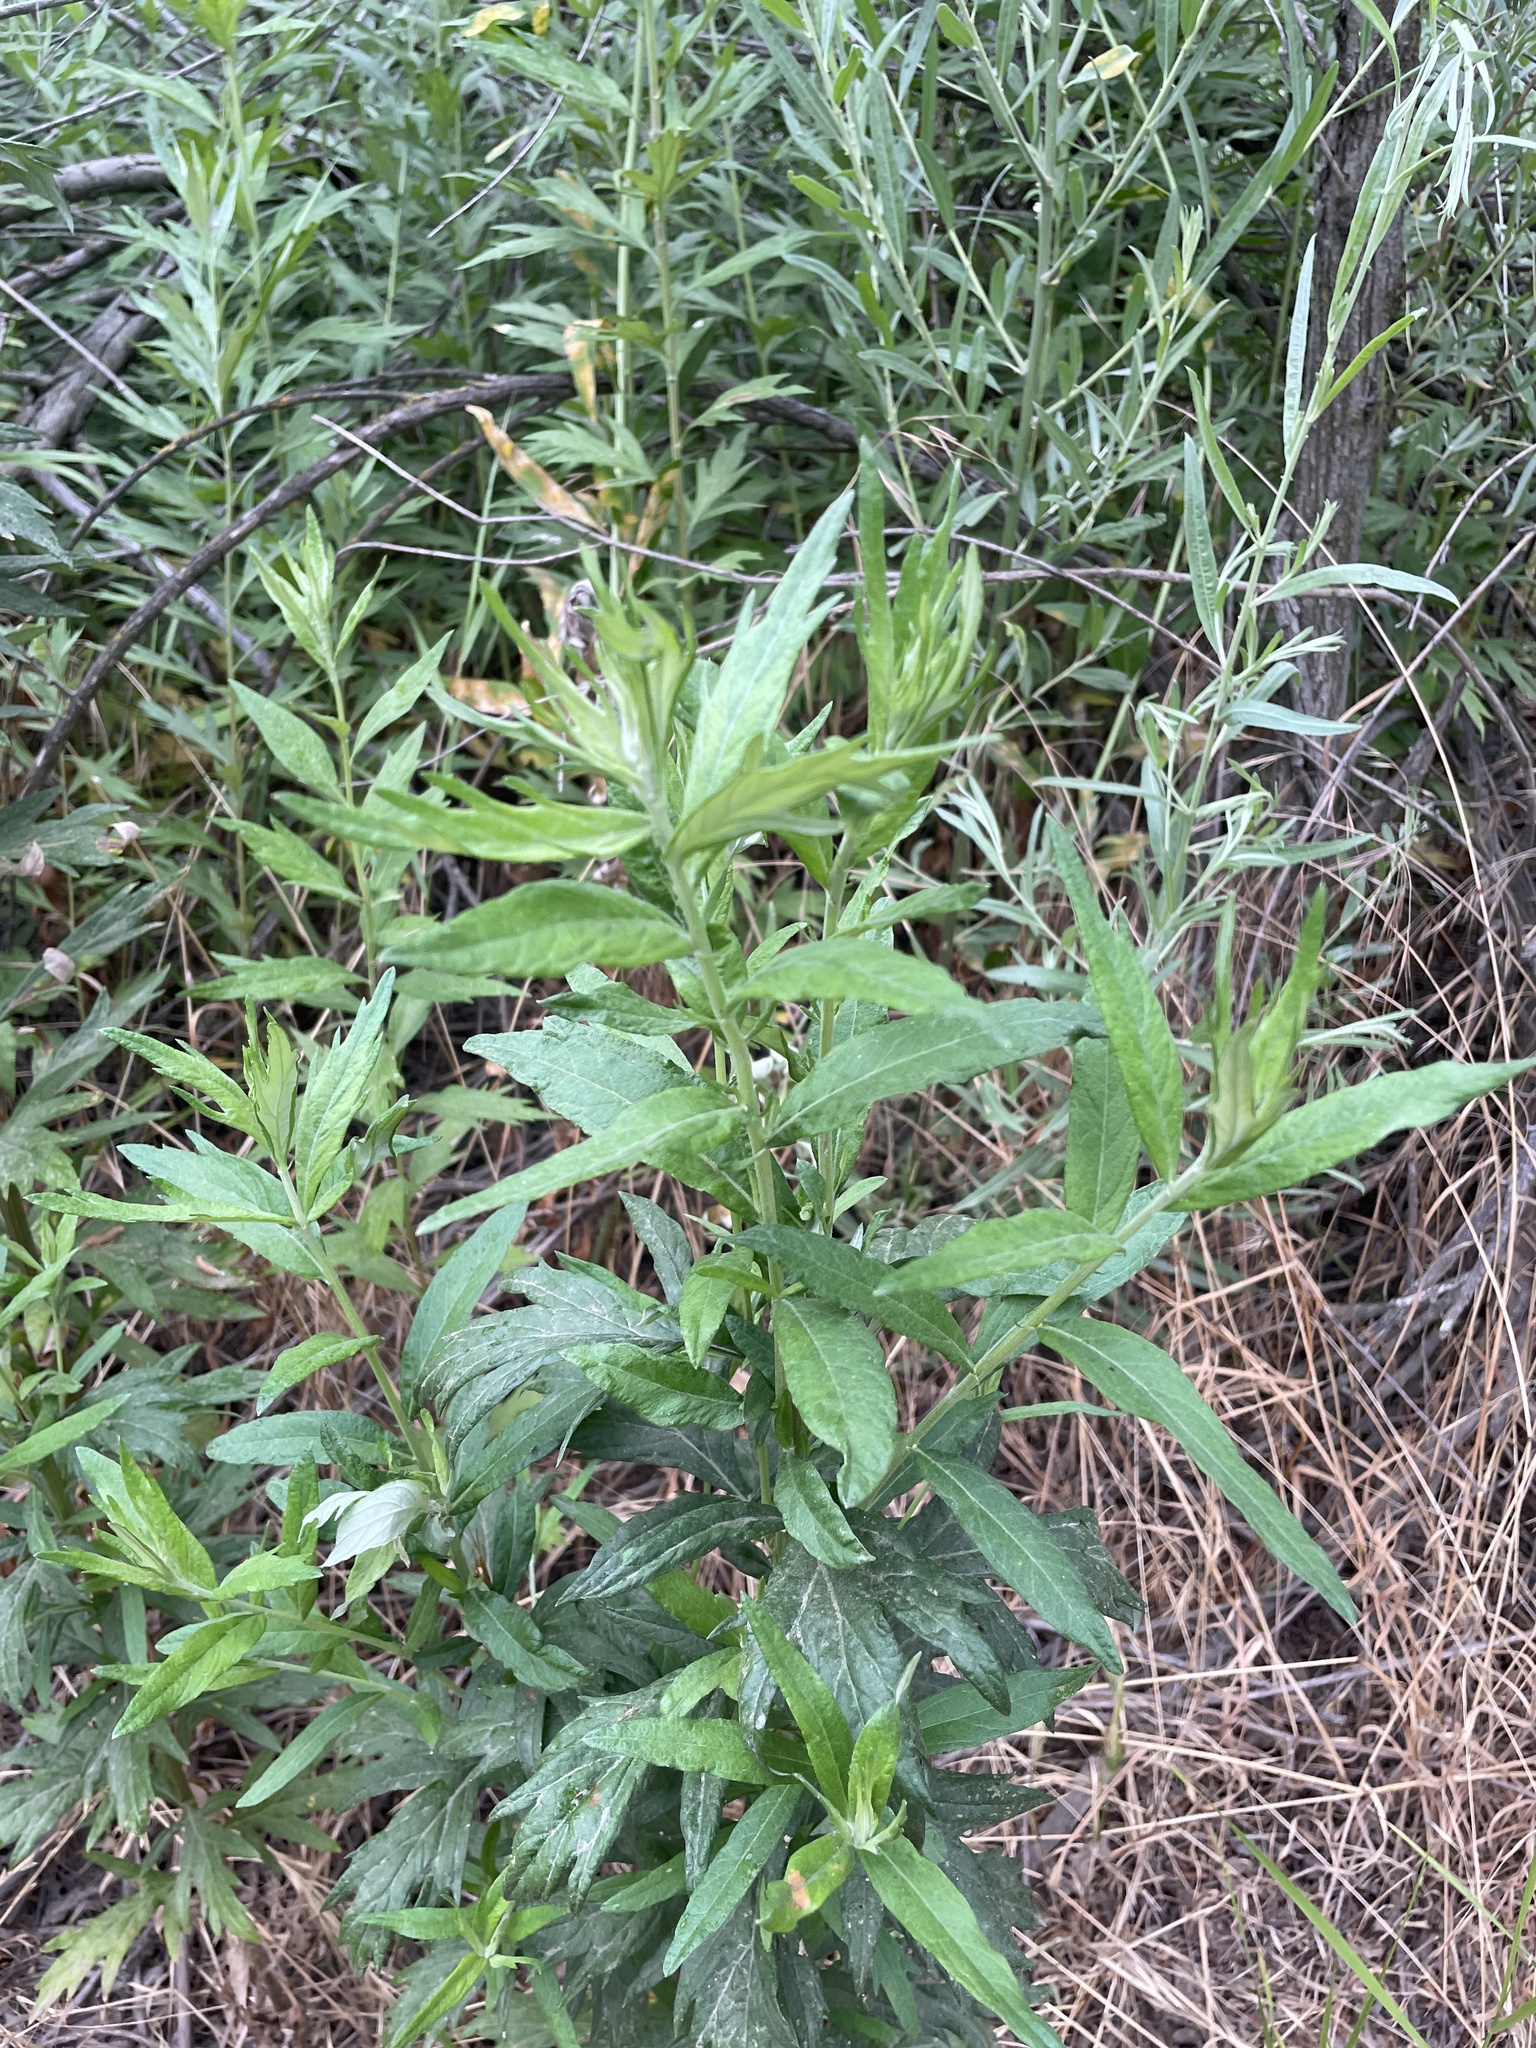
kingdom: Plantae
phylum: Tracheophyta
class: Magnoliopsida
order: Asterales
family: Asteraceae
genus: Artemisia
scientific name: Artemisia douglasiana
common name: Northwest mugwort
